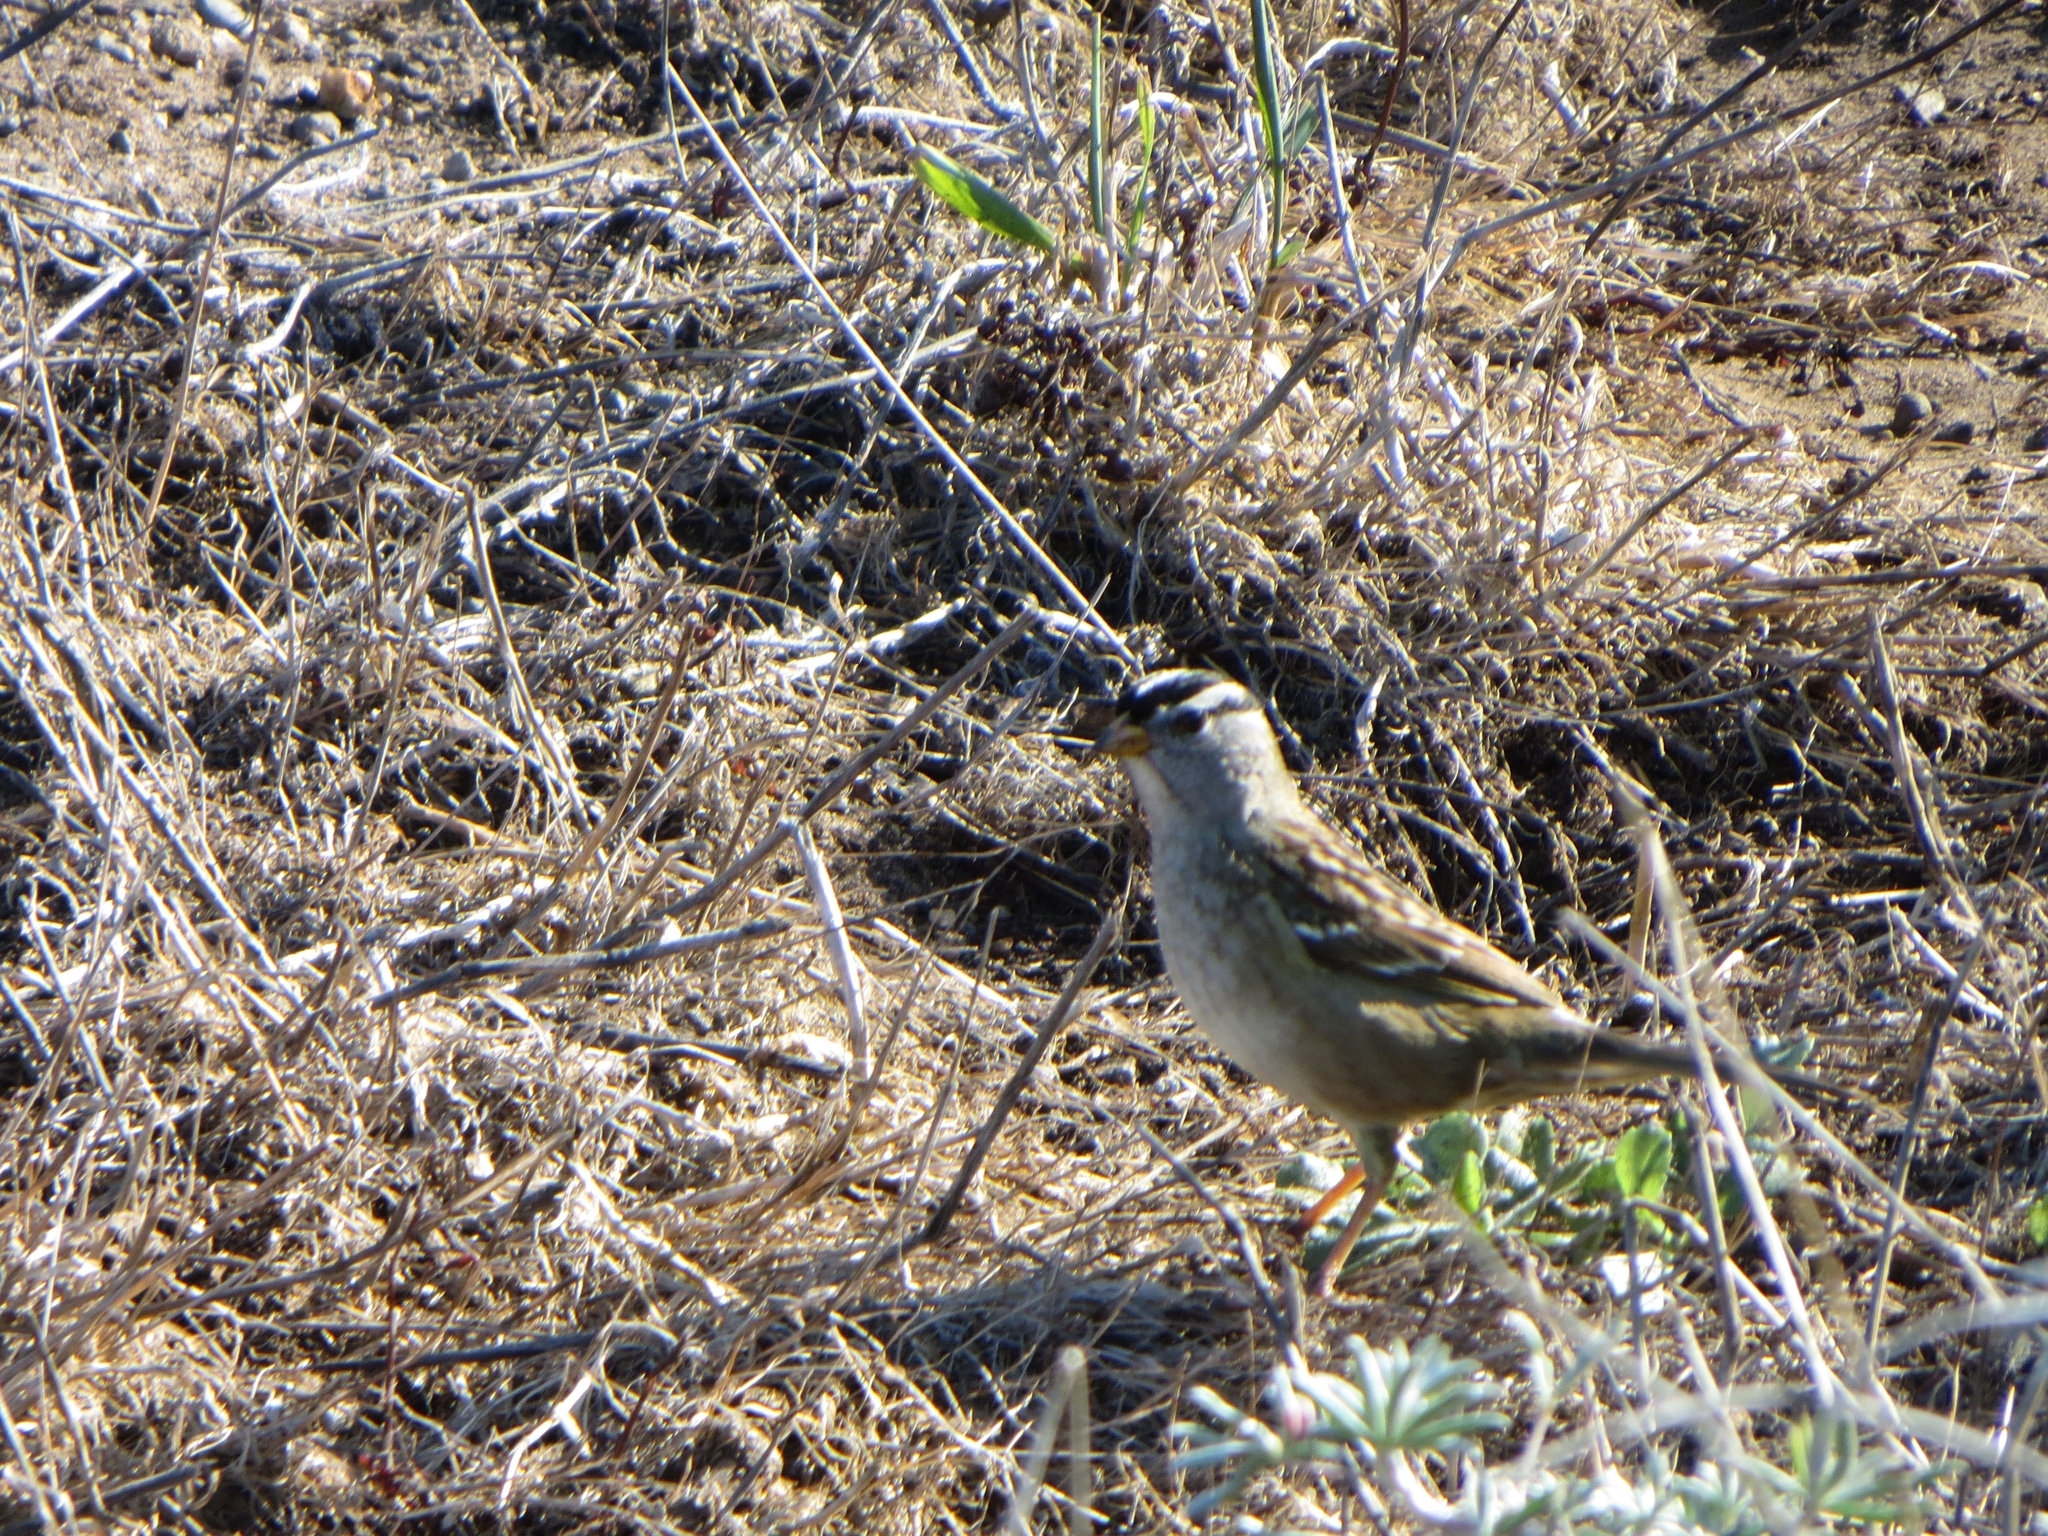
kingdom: Animalia
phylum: Chordata
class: Aves
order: Passeriformes
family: Passerellidae
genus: Zonotrichia
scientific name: Zonotrichia leucophrys
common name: White-crowned sparrow
